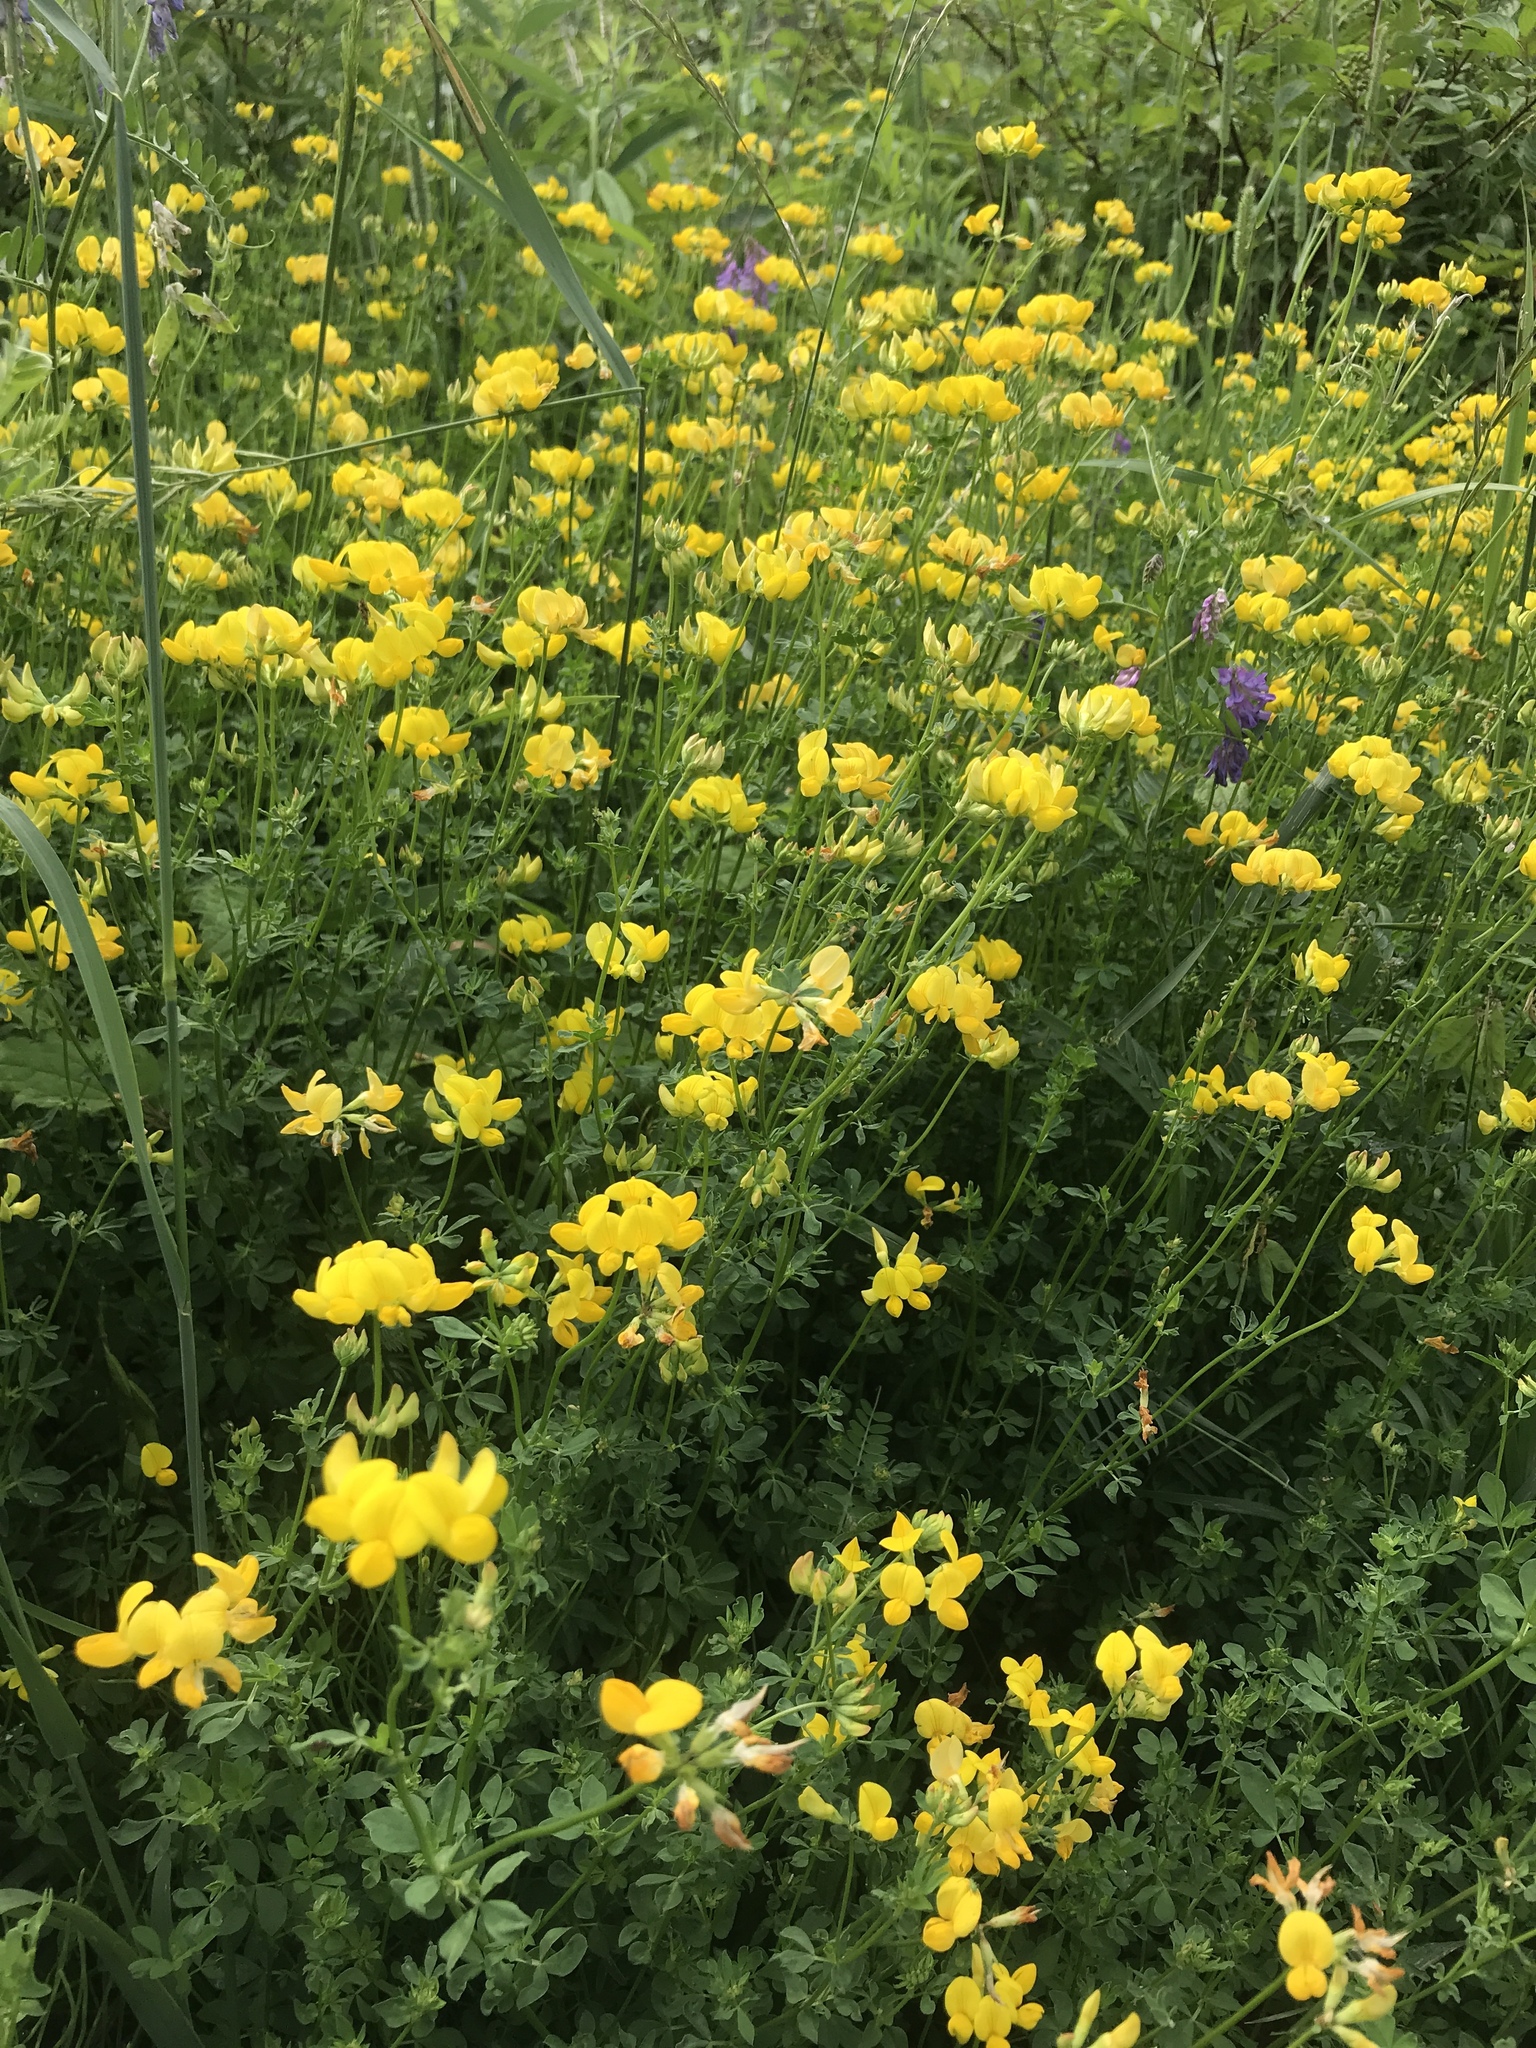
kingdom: Plantae
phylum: Tracheophyta
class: Magnoliopsida
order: Fabales
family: Fabaceae
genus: Lotus
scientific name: Lotus corniculatus
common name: Common bird's-foot-trefoil
